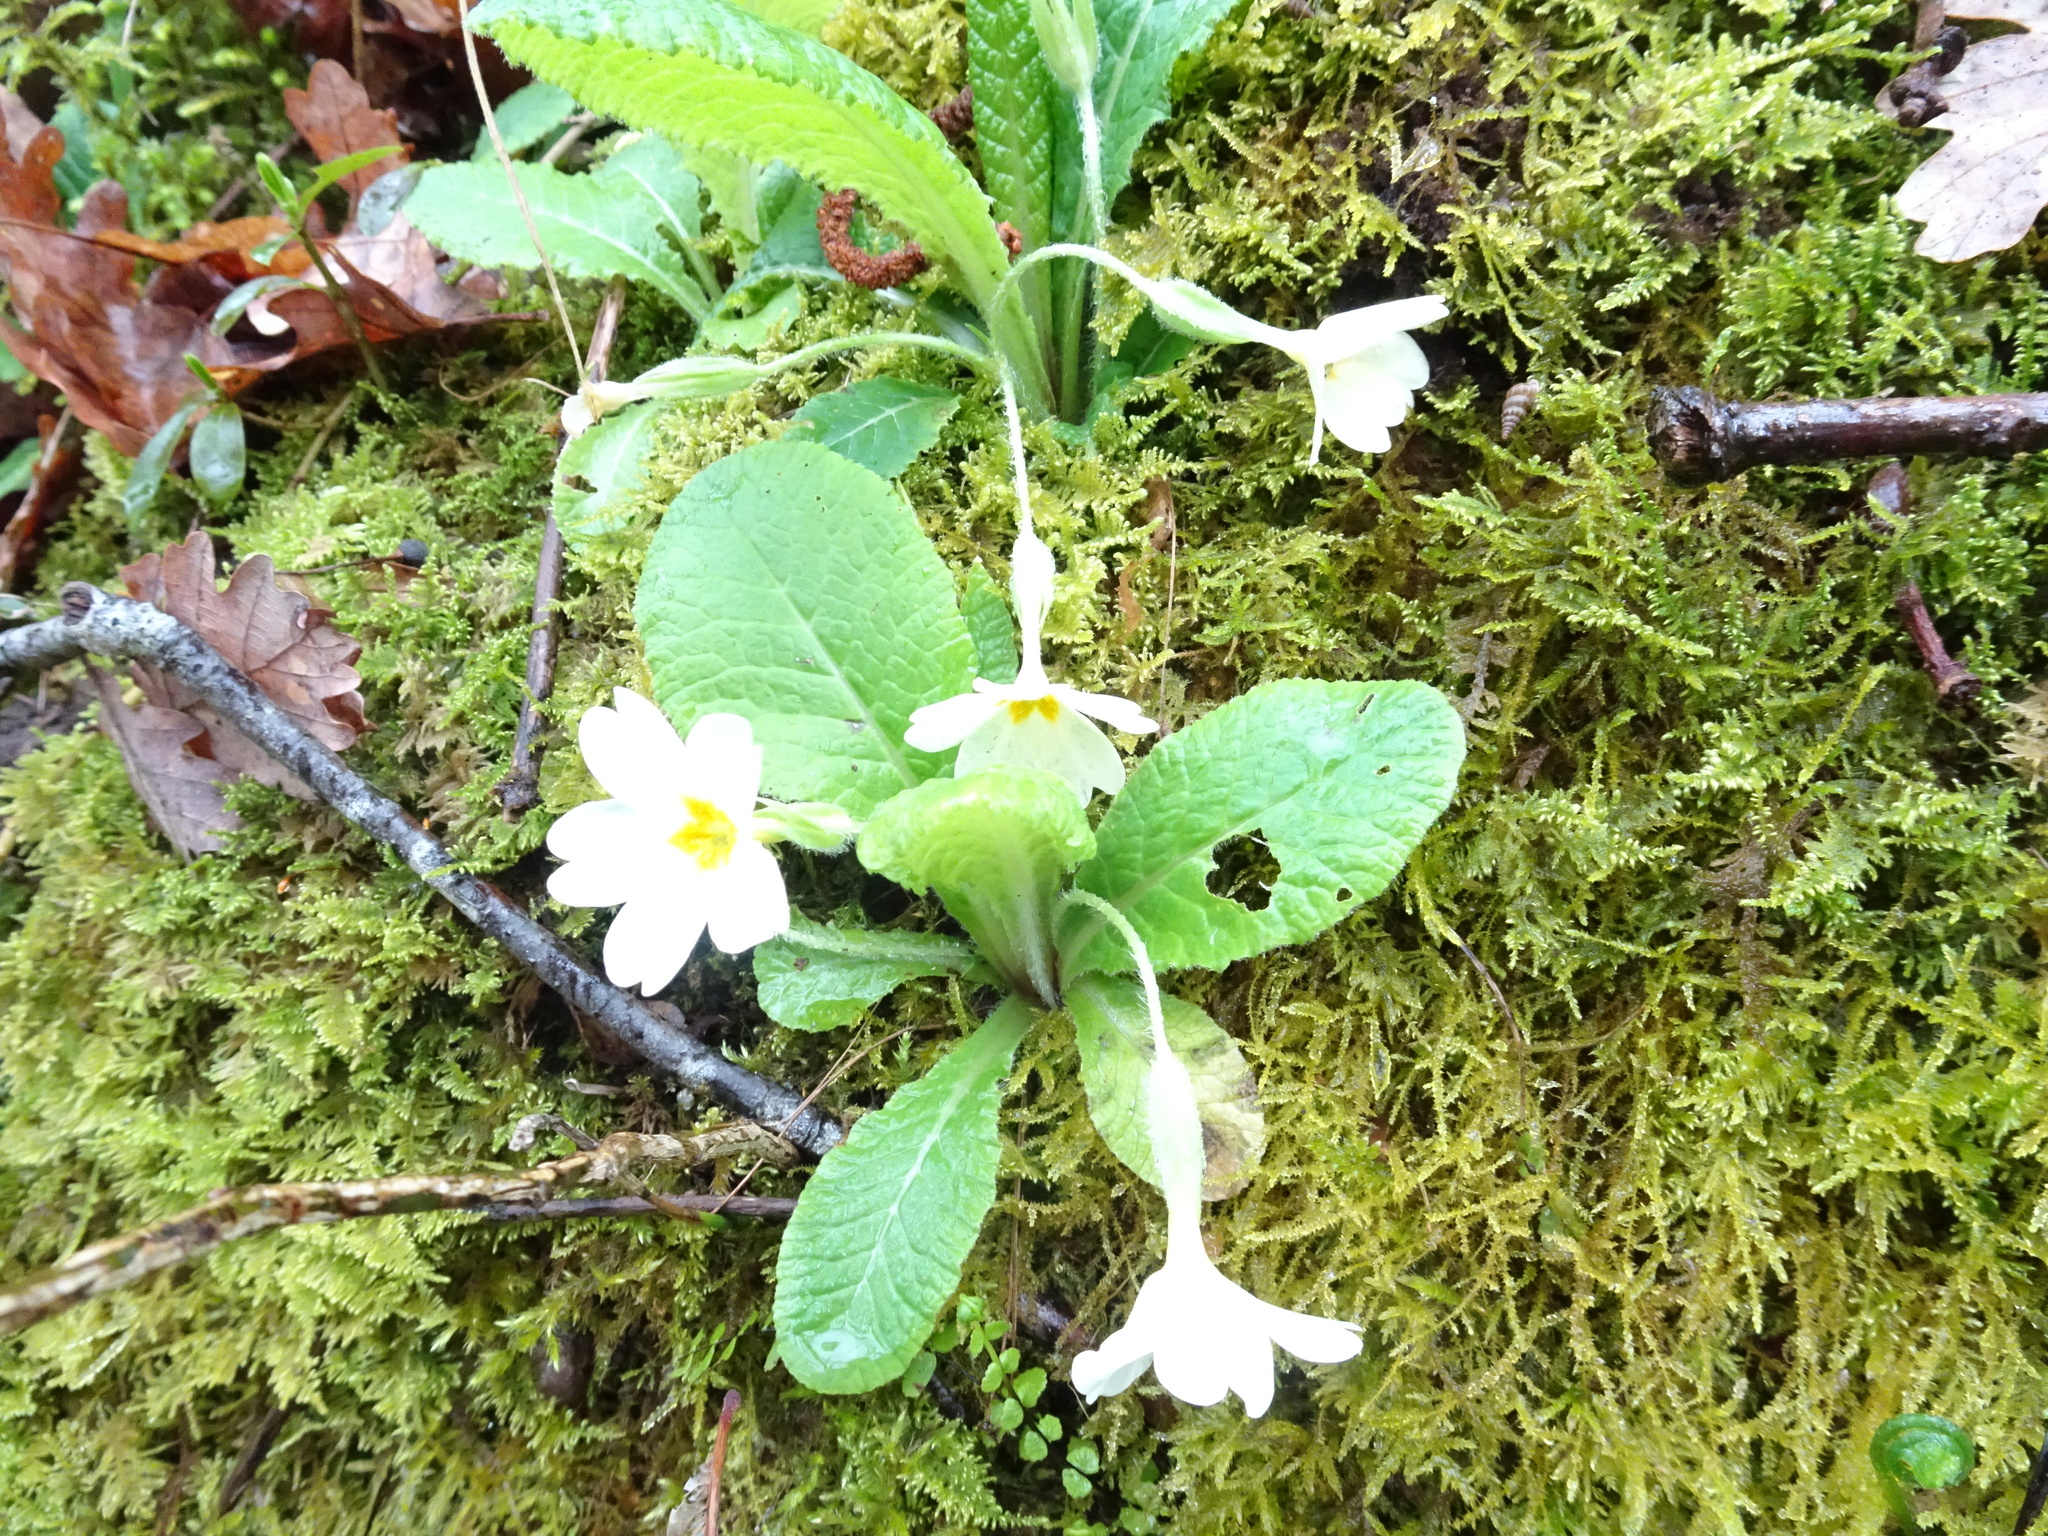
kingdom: Plantae
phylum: Tracheophyta
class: Magnoliopsida
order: Ericales
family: Primulaceae
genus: Primula
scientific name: Primula vulgaris
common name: Primrose
